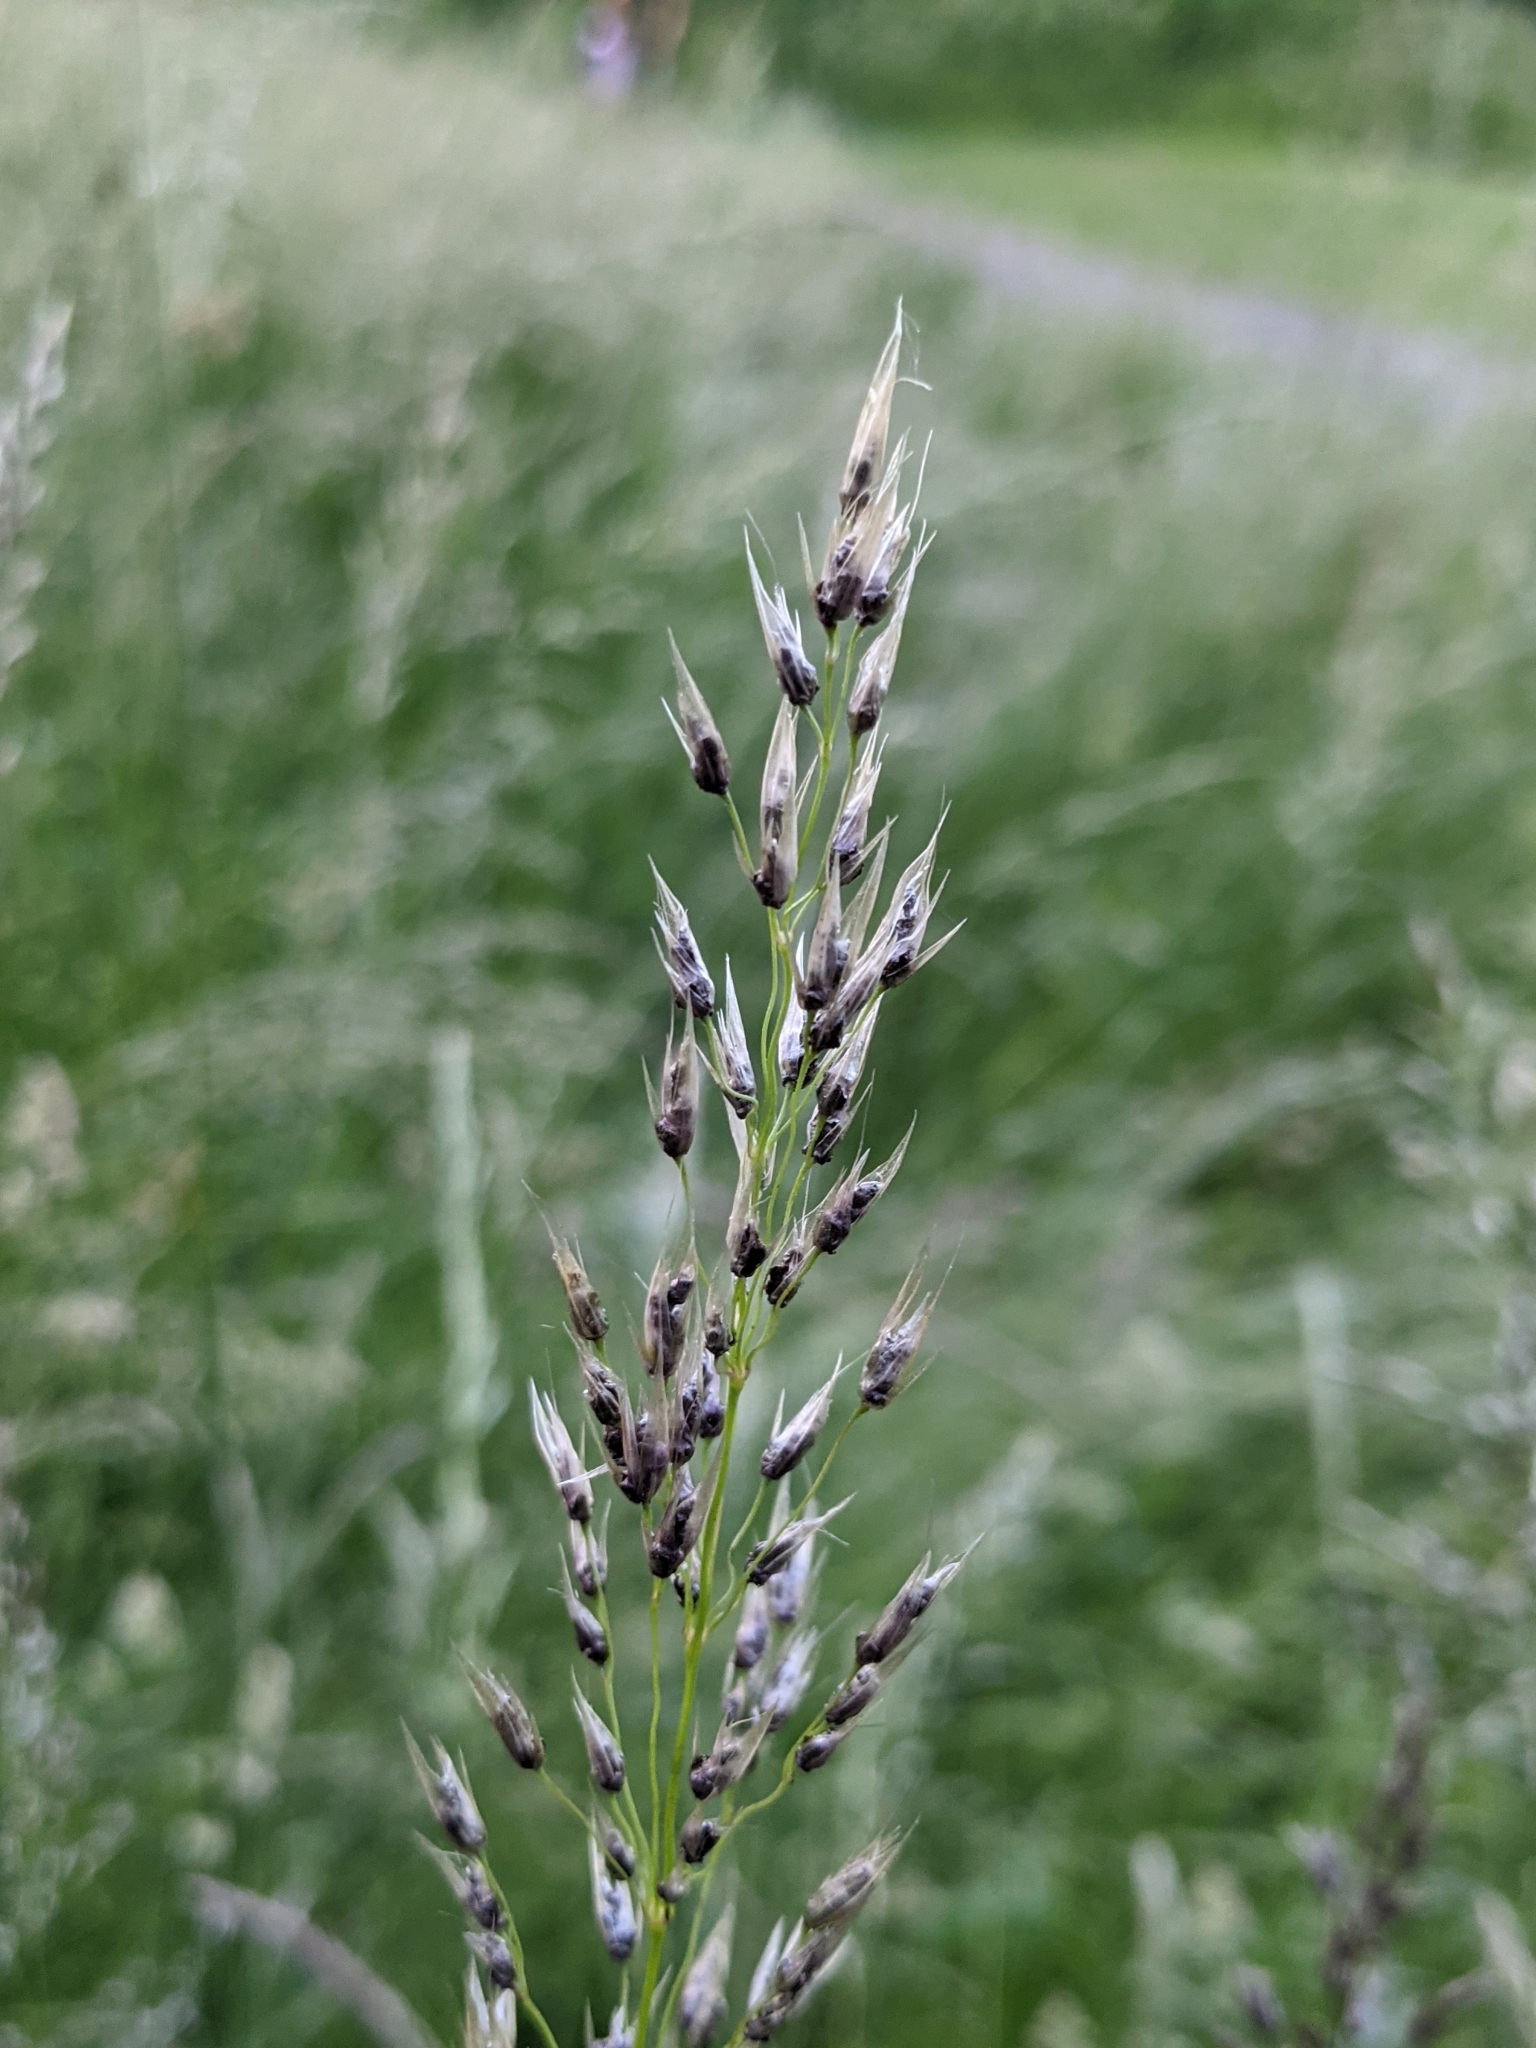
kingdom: Fungi
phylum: Basidiomycota
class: Ustilaginomycetes
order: Ustilaginales
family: Ustilaginaceae
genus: Ustilago
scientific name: Ustilago avenae
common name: Loose smut of oats & oat grass
